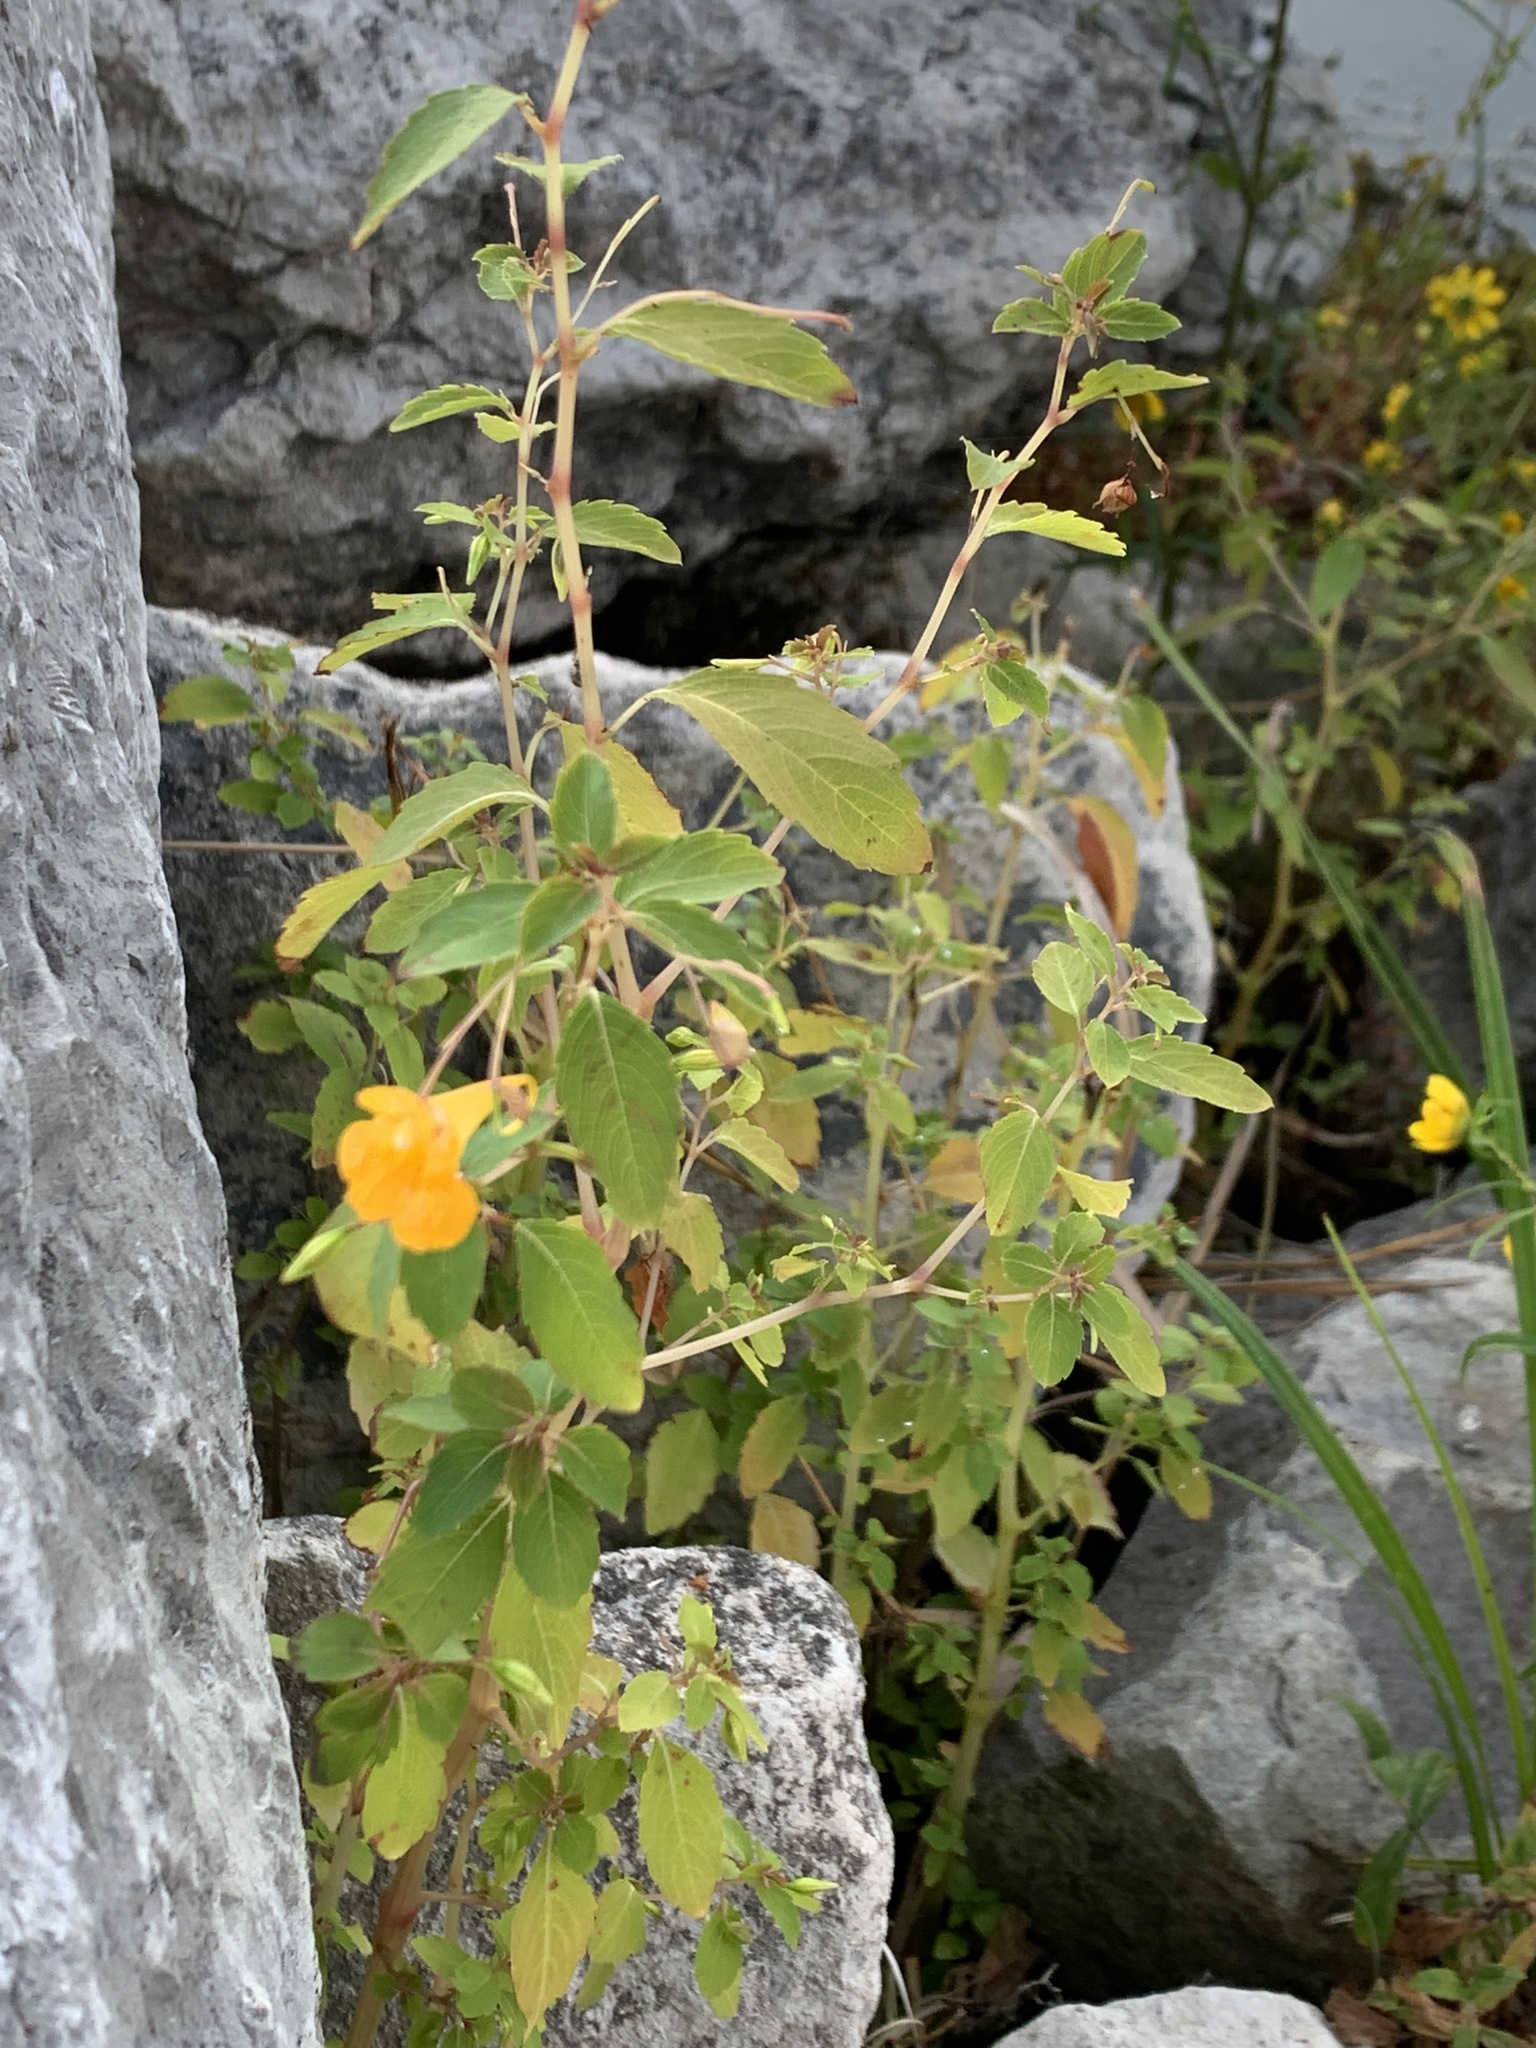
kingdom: Plantae
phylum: Tracheophyta
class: Magnoliopsida
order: Ericales
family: Balsaminaceae
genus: Impatiens
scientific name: Impatiens capensis
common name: Orange balsam
